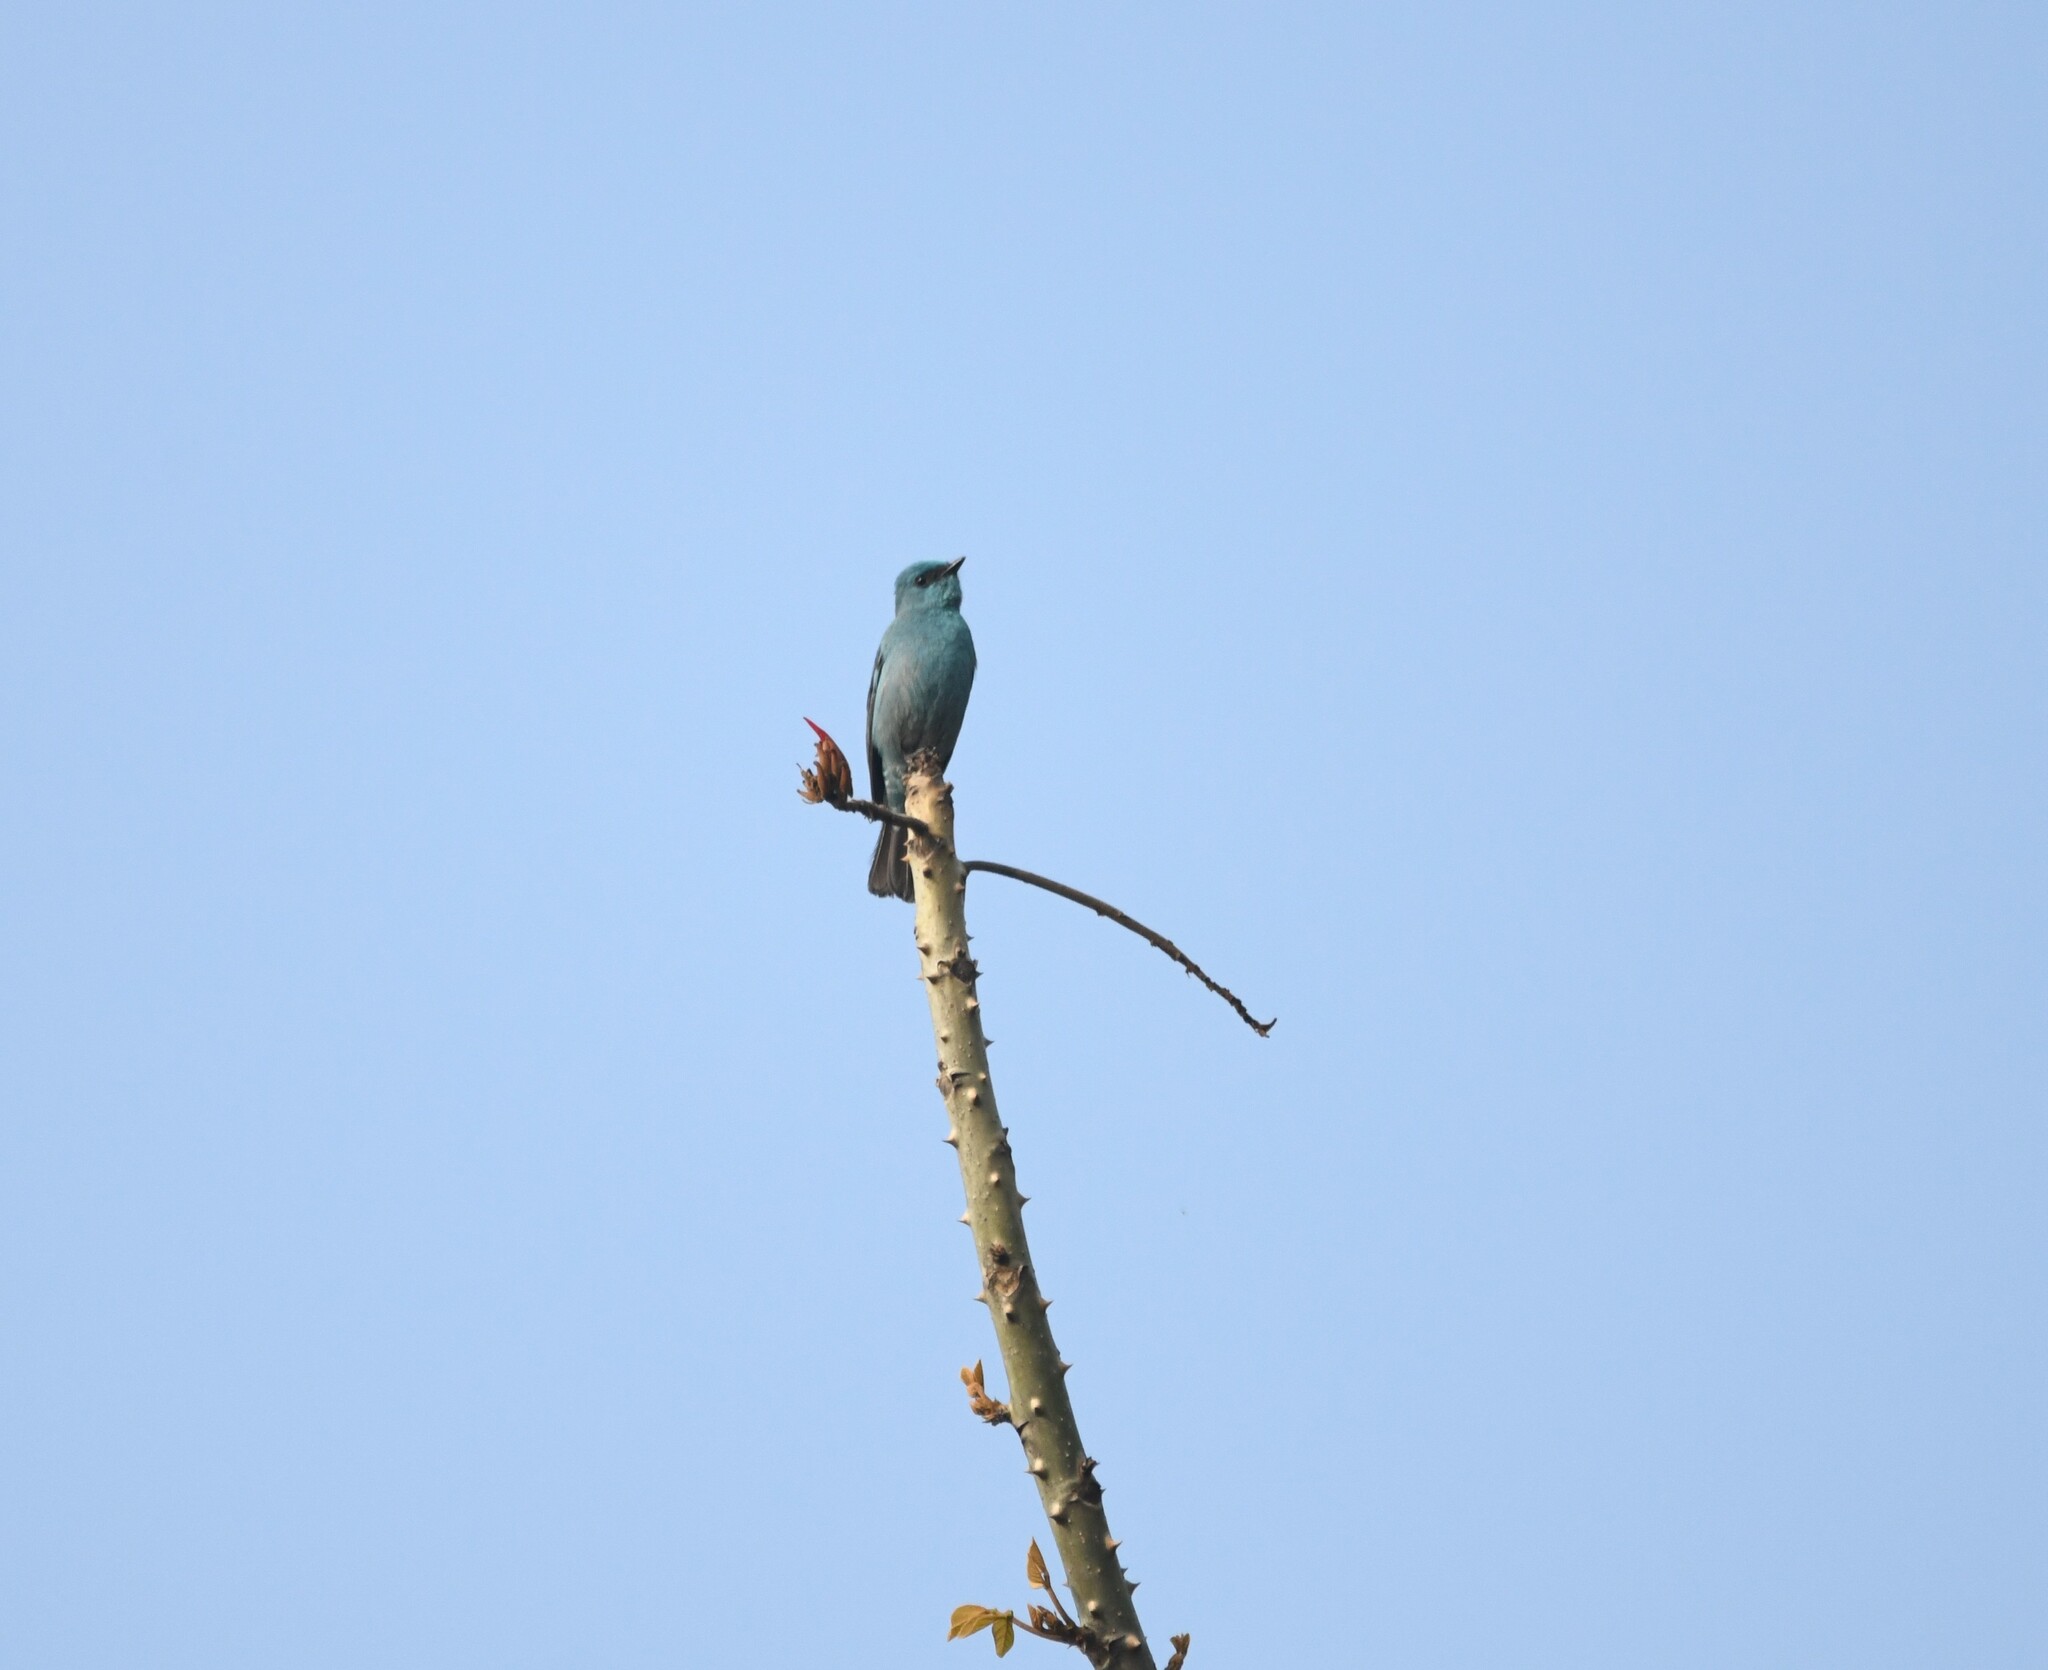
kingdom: Animalia
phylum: Chordata
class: Aves
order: Passeriformes
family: Muscicapidae
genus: Eumyias
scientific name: Eumyias thalassinus
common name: Verditer flycatcher
